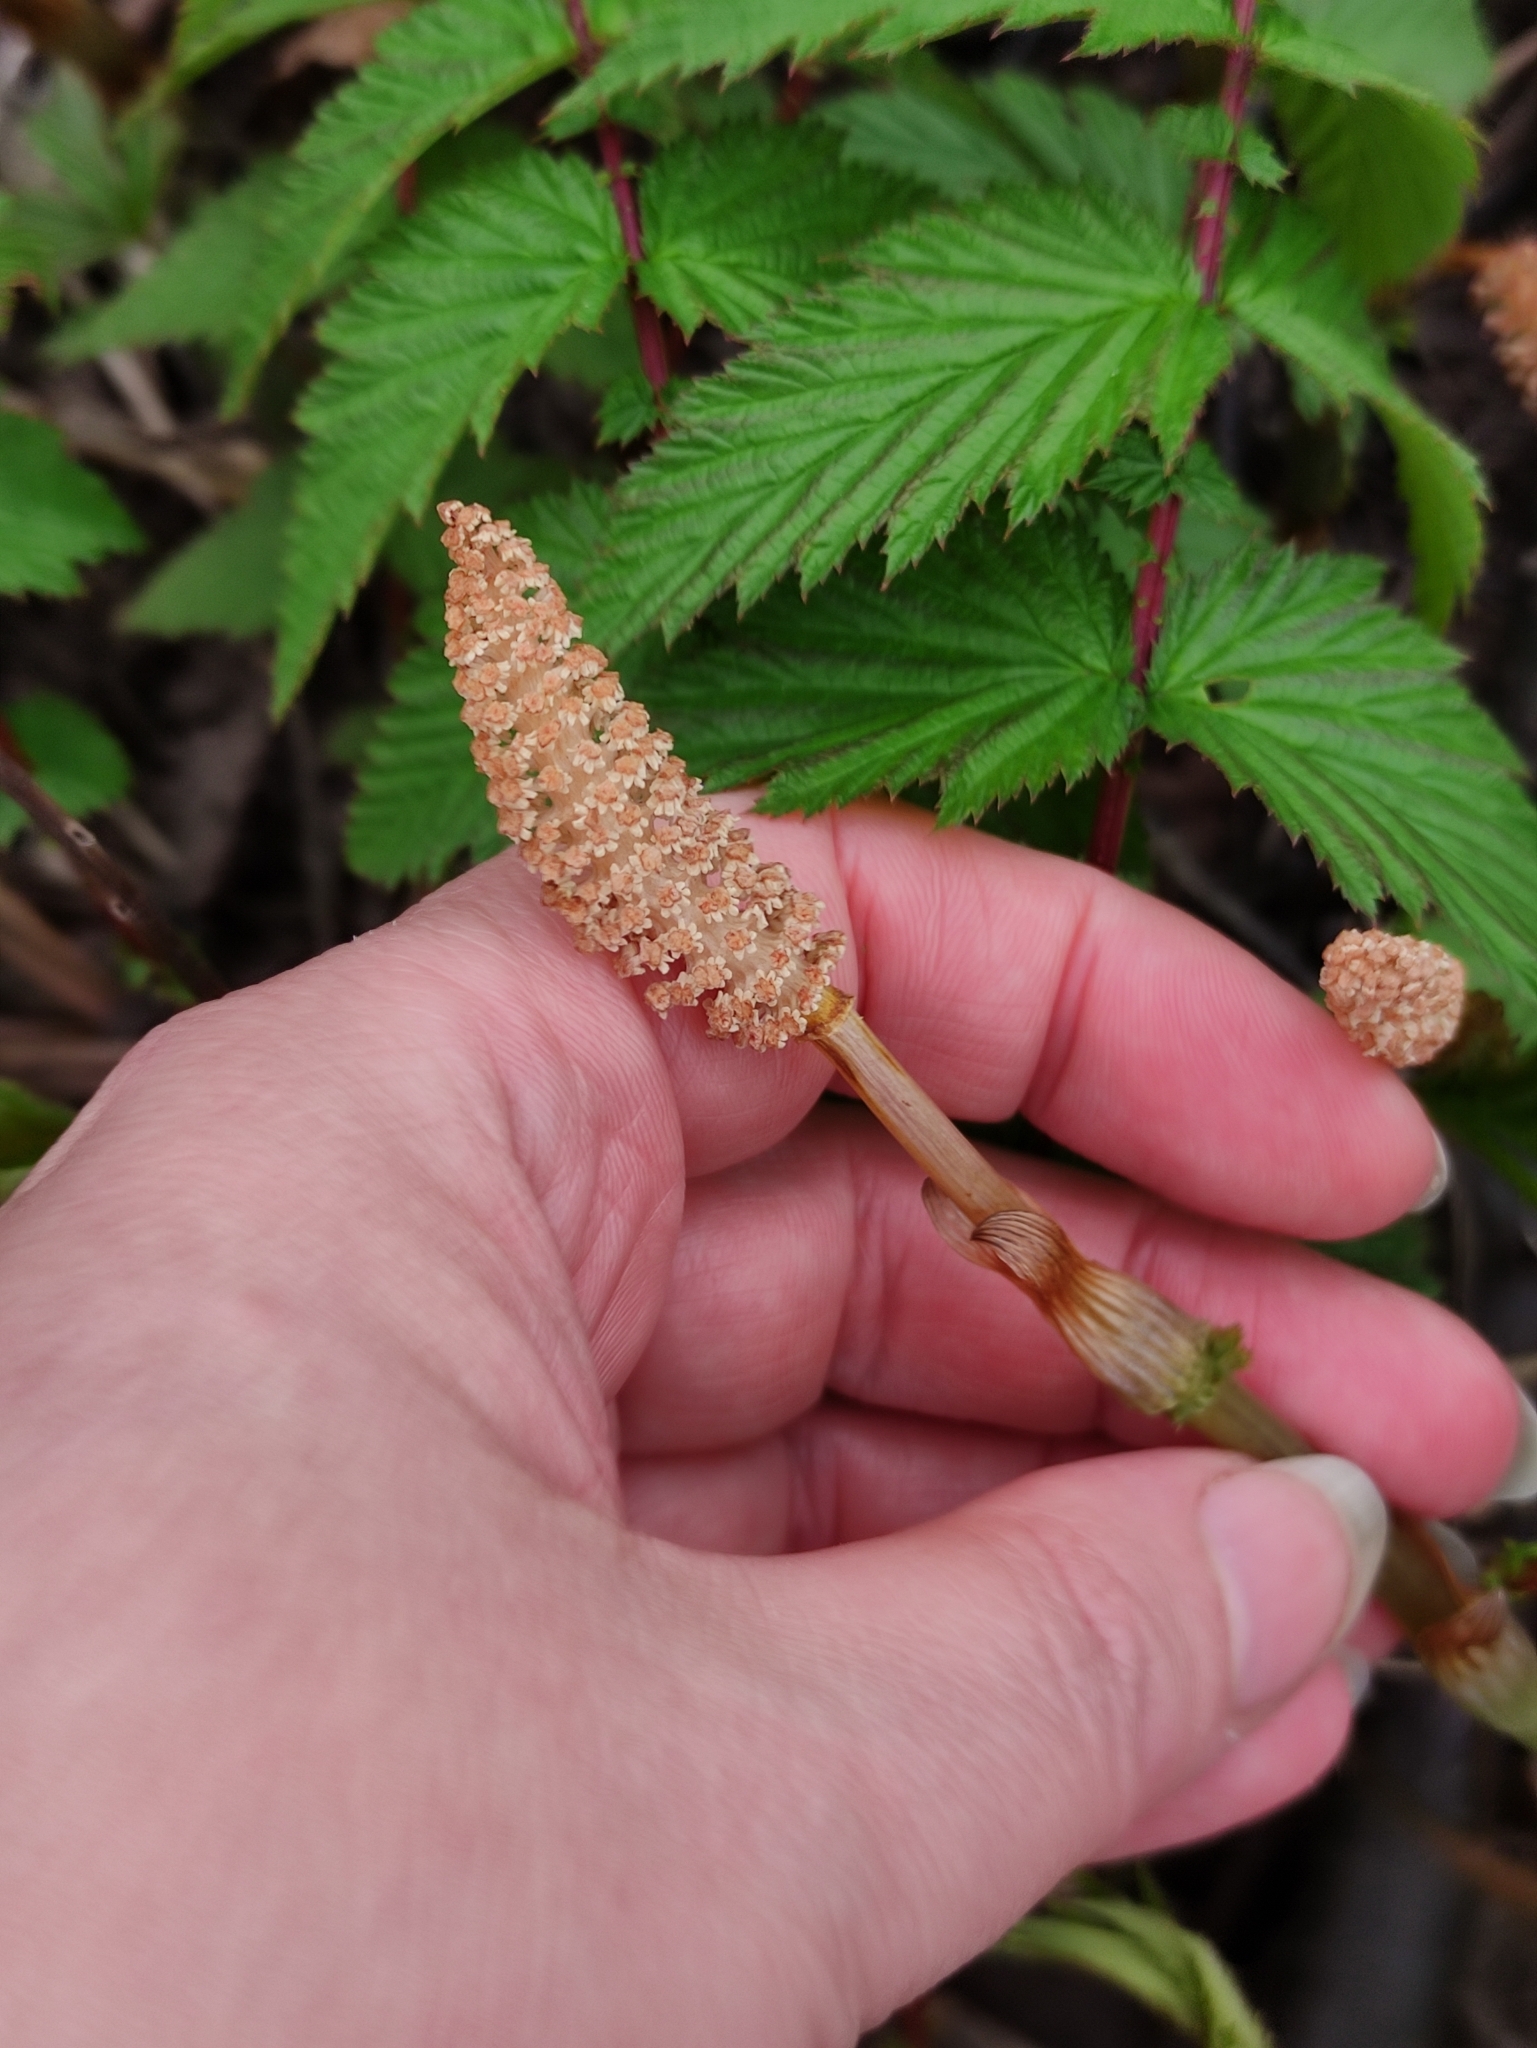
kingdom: Plantae
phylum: Tracheophyta
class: Polypodiopsida
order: Equisetales
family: Equisetaceae
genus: Equisetum
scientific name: Equisetum sylvaticum
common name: Wood horsetail
